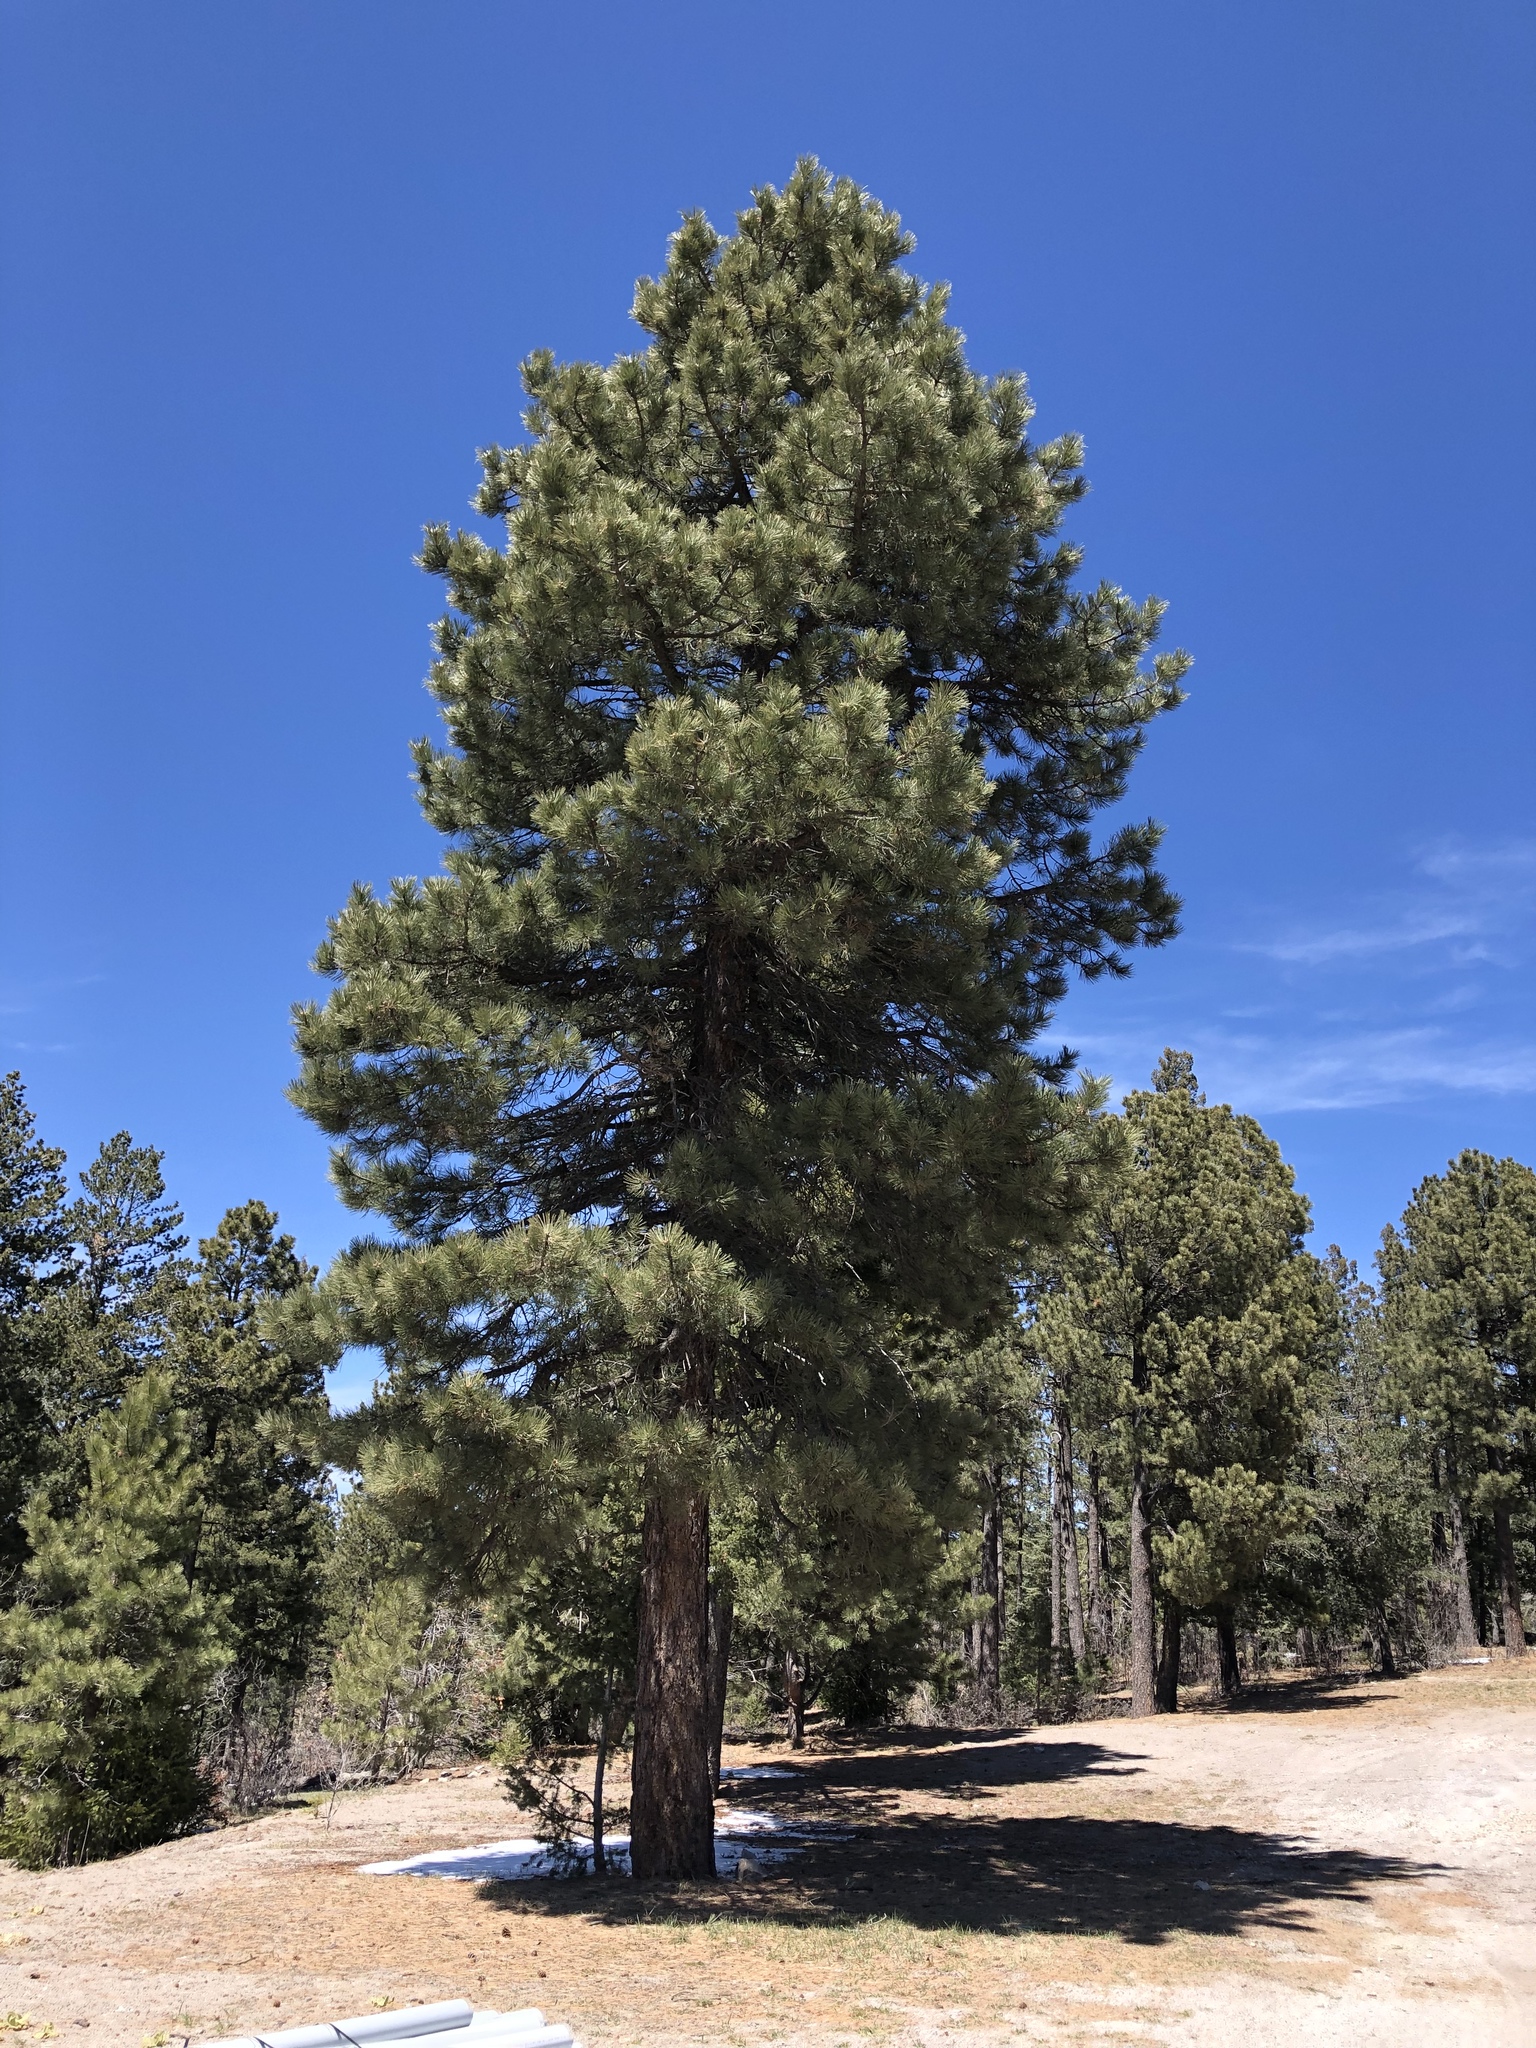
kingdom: Plantae
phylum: Tracheophyta
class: Pinopsida
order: Pinales
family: Pinaceae
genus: Pinus
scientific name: Pinus ponderosa
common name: Western yellow-pine
